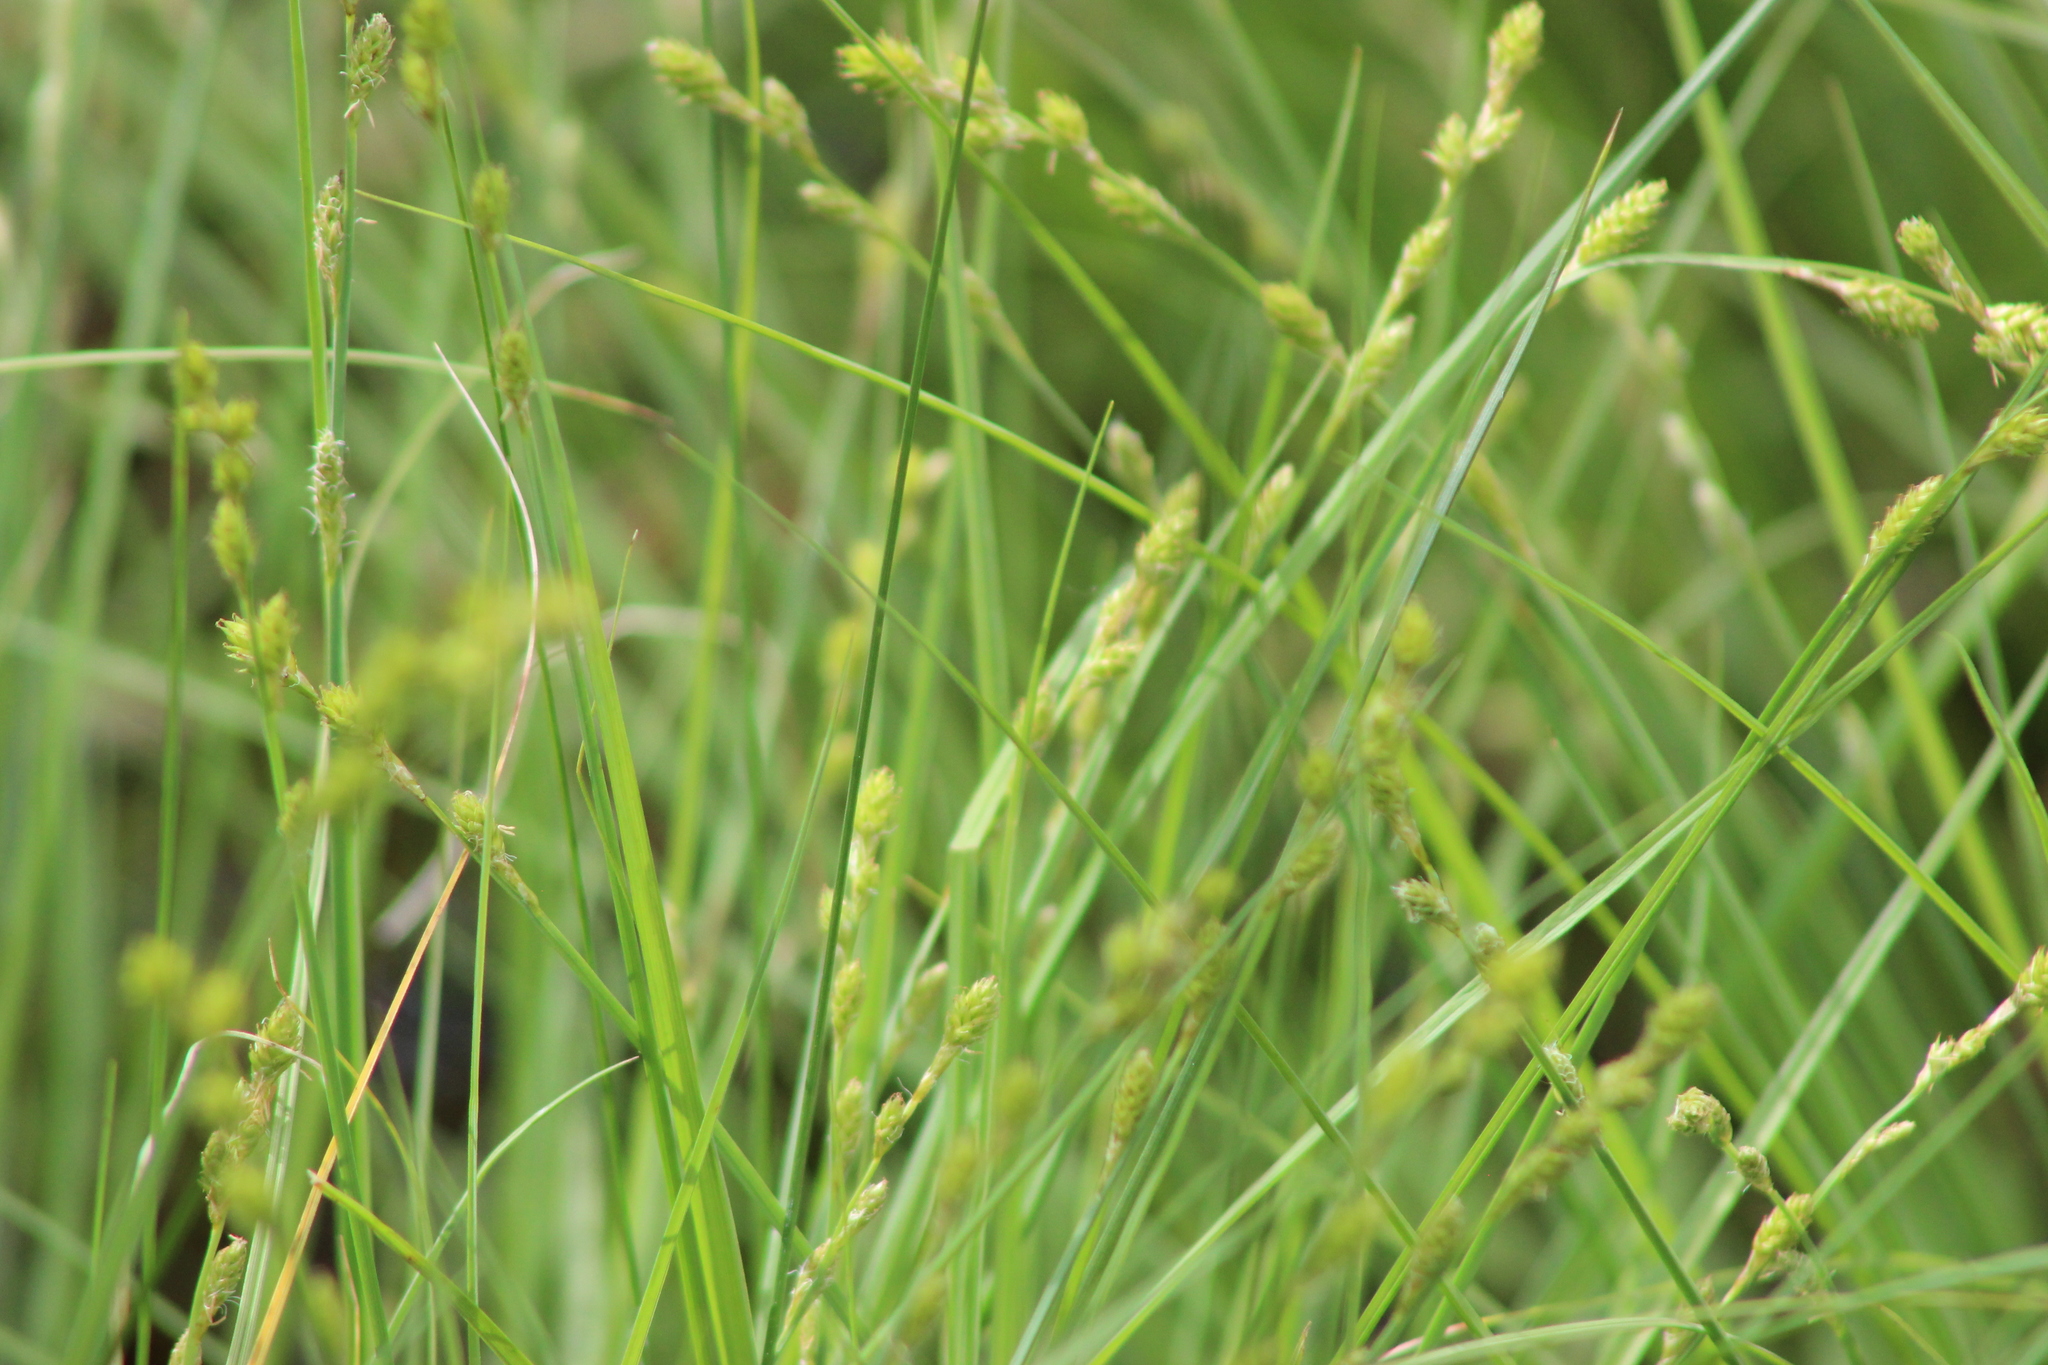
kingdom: Plantae
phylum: Tracheophyta
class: Liliopsida
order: Poales
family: Cyperaceae
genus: Carex
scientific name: Carex canescens
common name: White sedge
